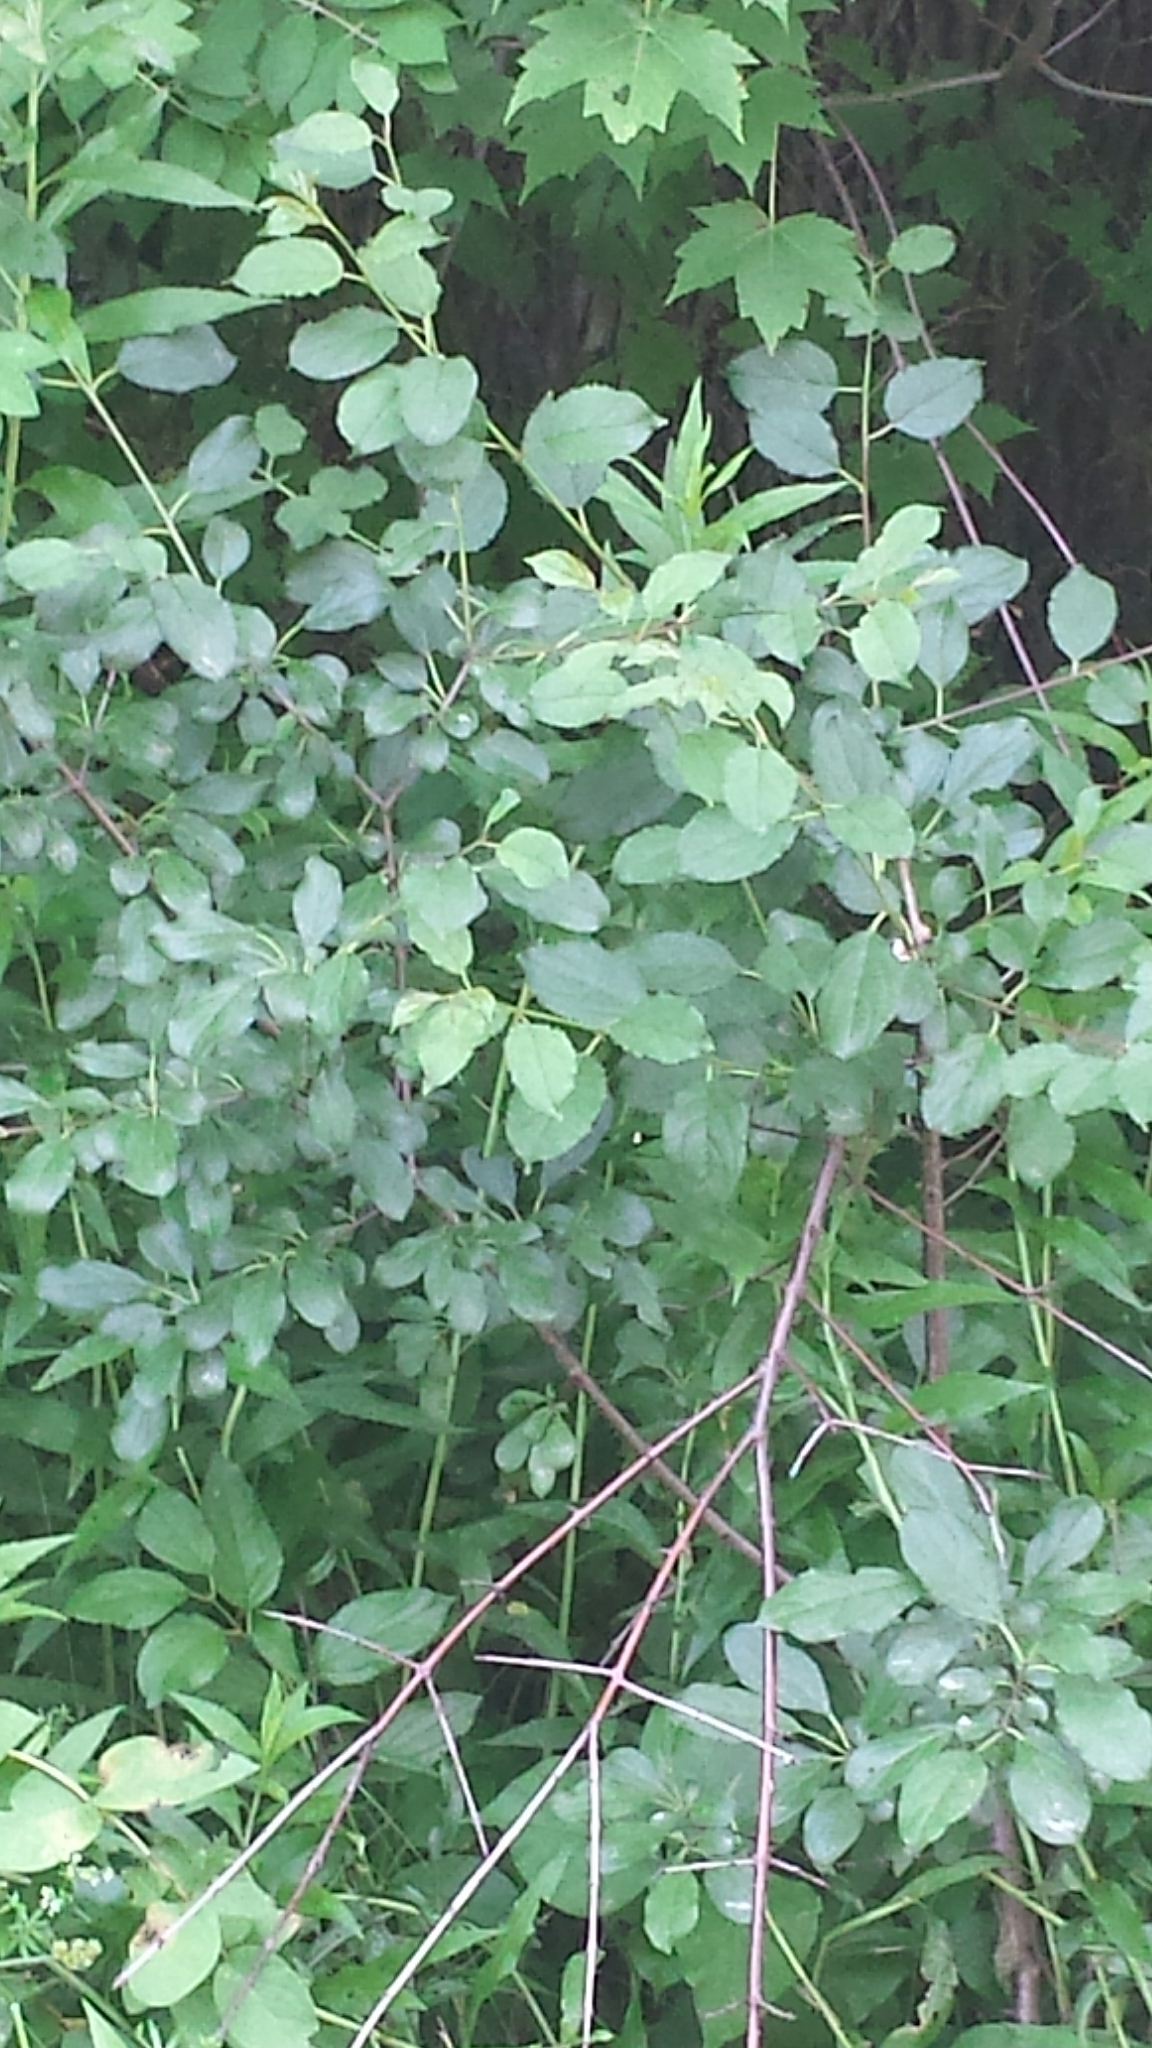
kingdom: Plantae
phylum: Tracheophyta
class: Magnoliopsida
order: Rosales
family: Rhamnaceae
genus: Rhamnus
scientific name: Rhamnus cathartica
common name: Common buckthorn
